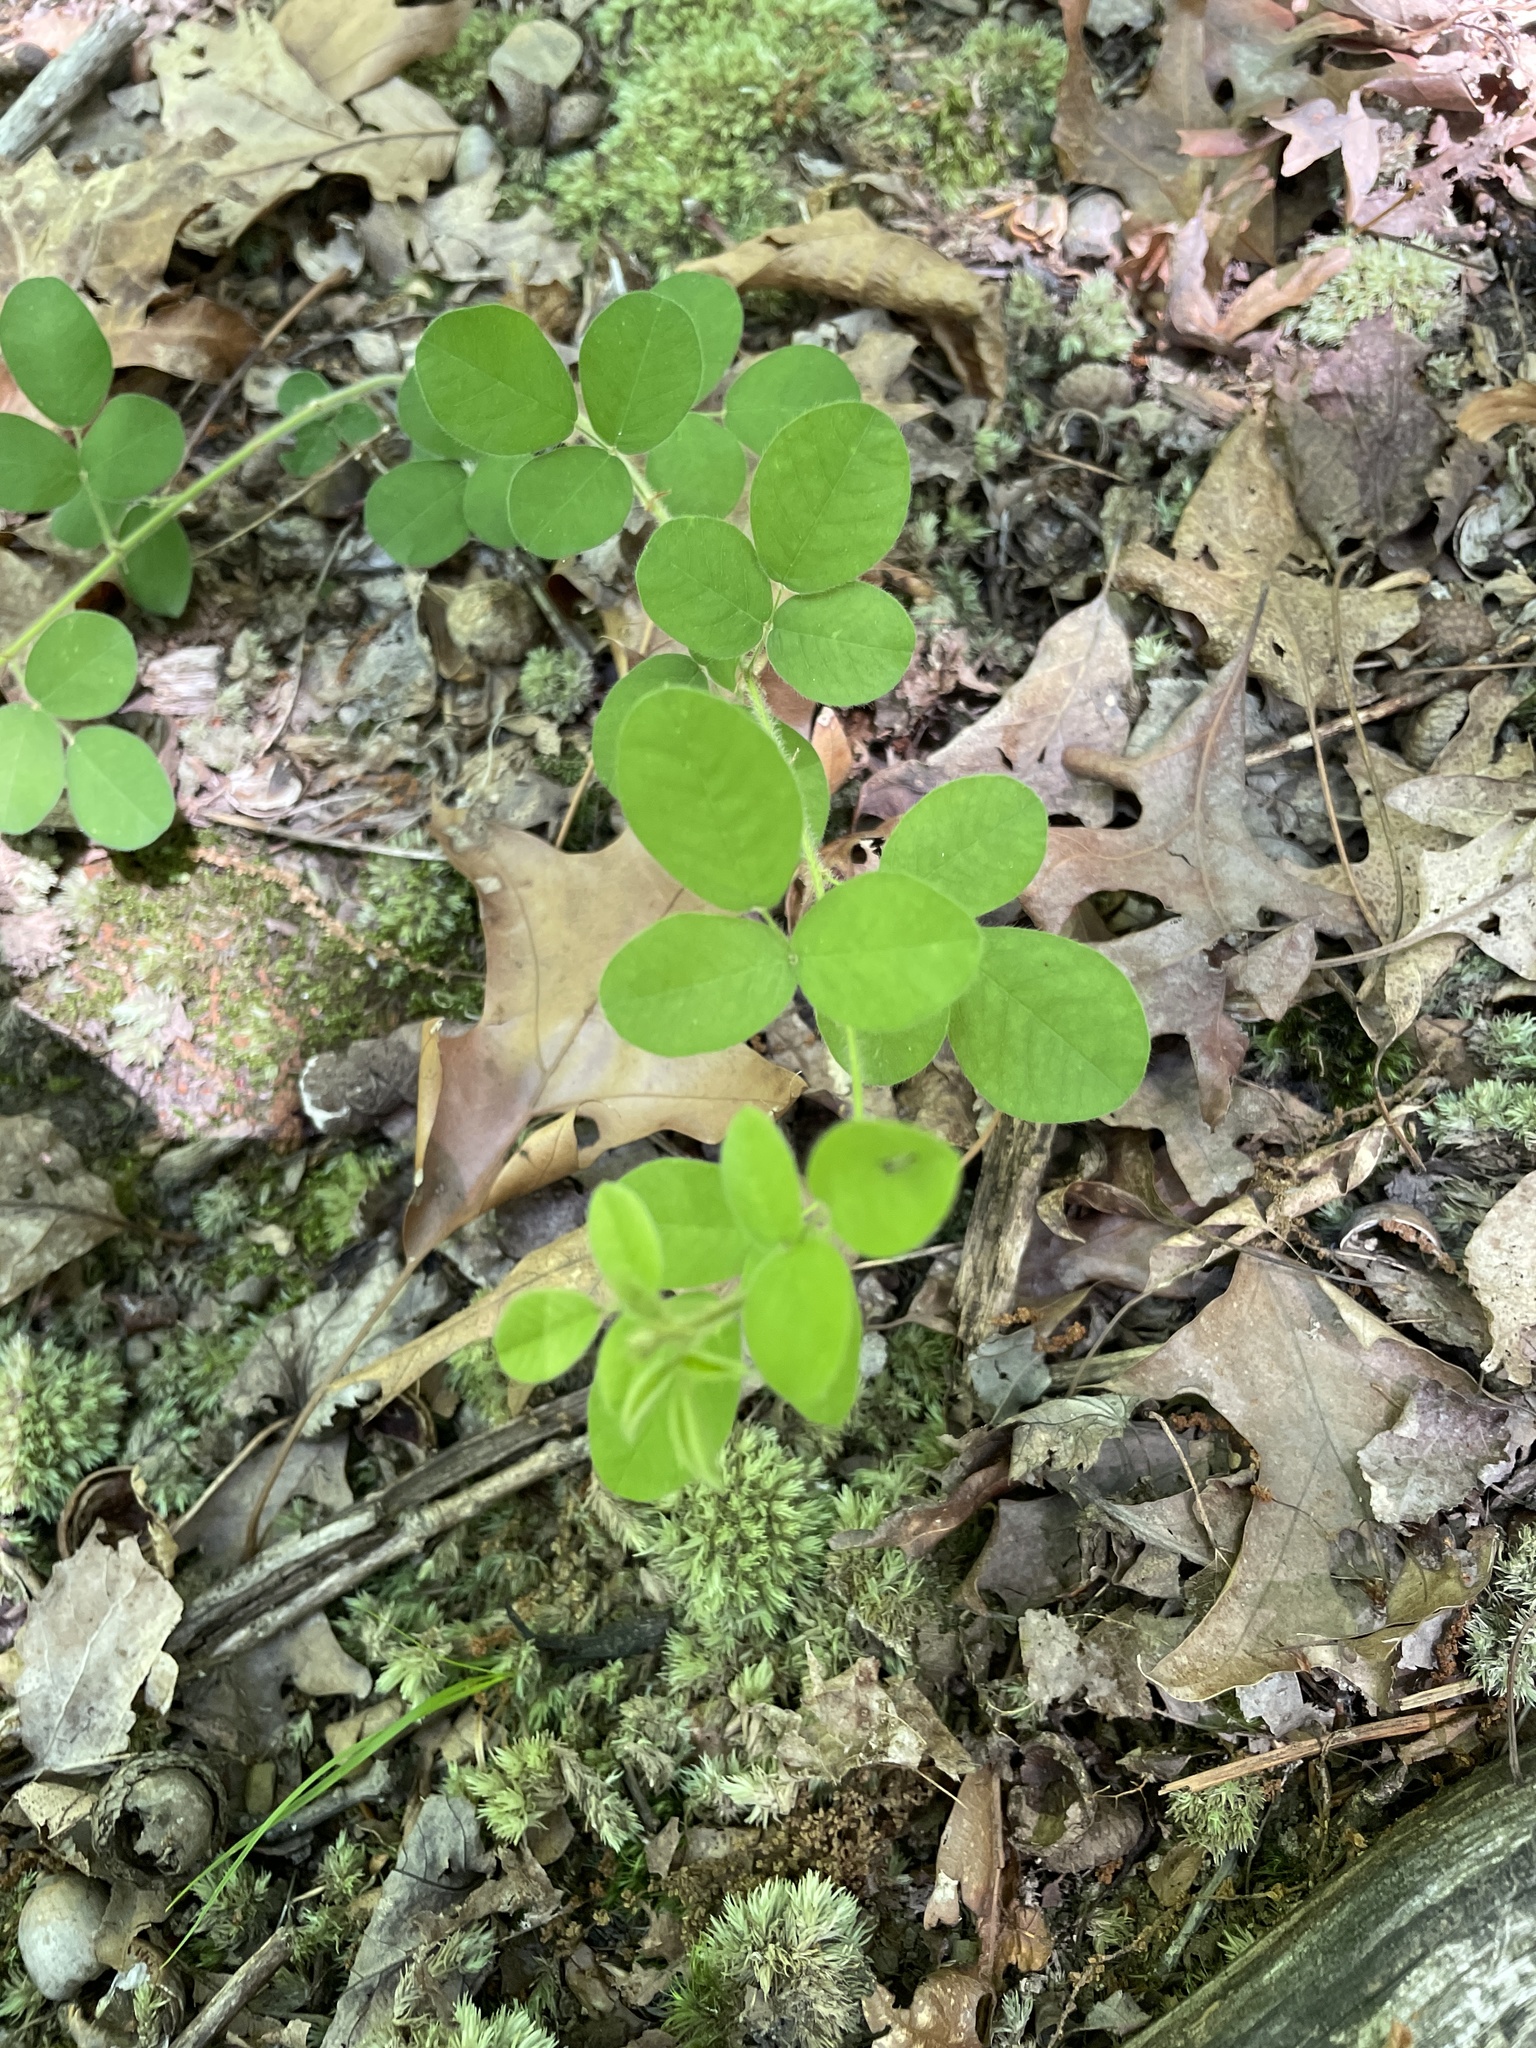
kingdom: Plantae
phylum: Tracheophyta
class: Magnoliopsida
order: Fabales
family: Fabaceae
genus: Lespedeza
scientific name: Lespedeza hirta
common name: Hairy lespedeza
